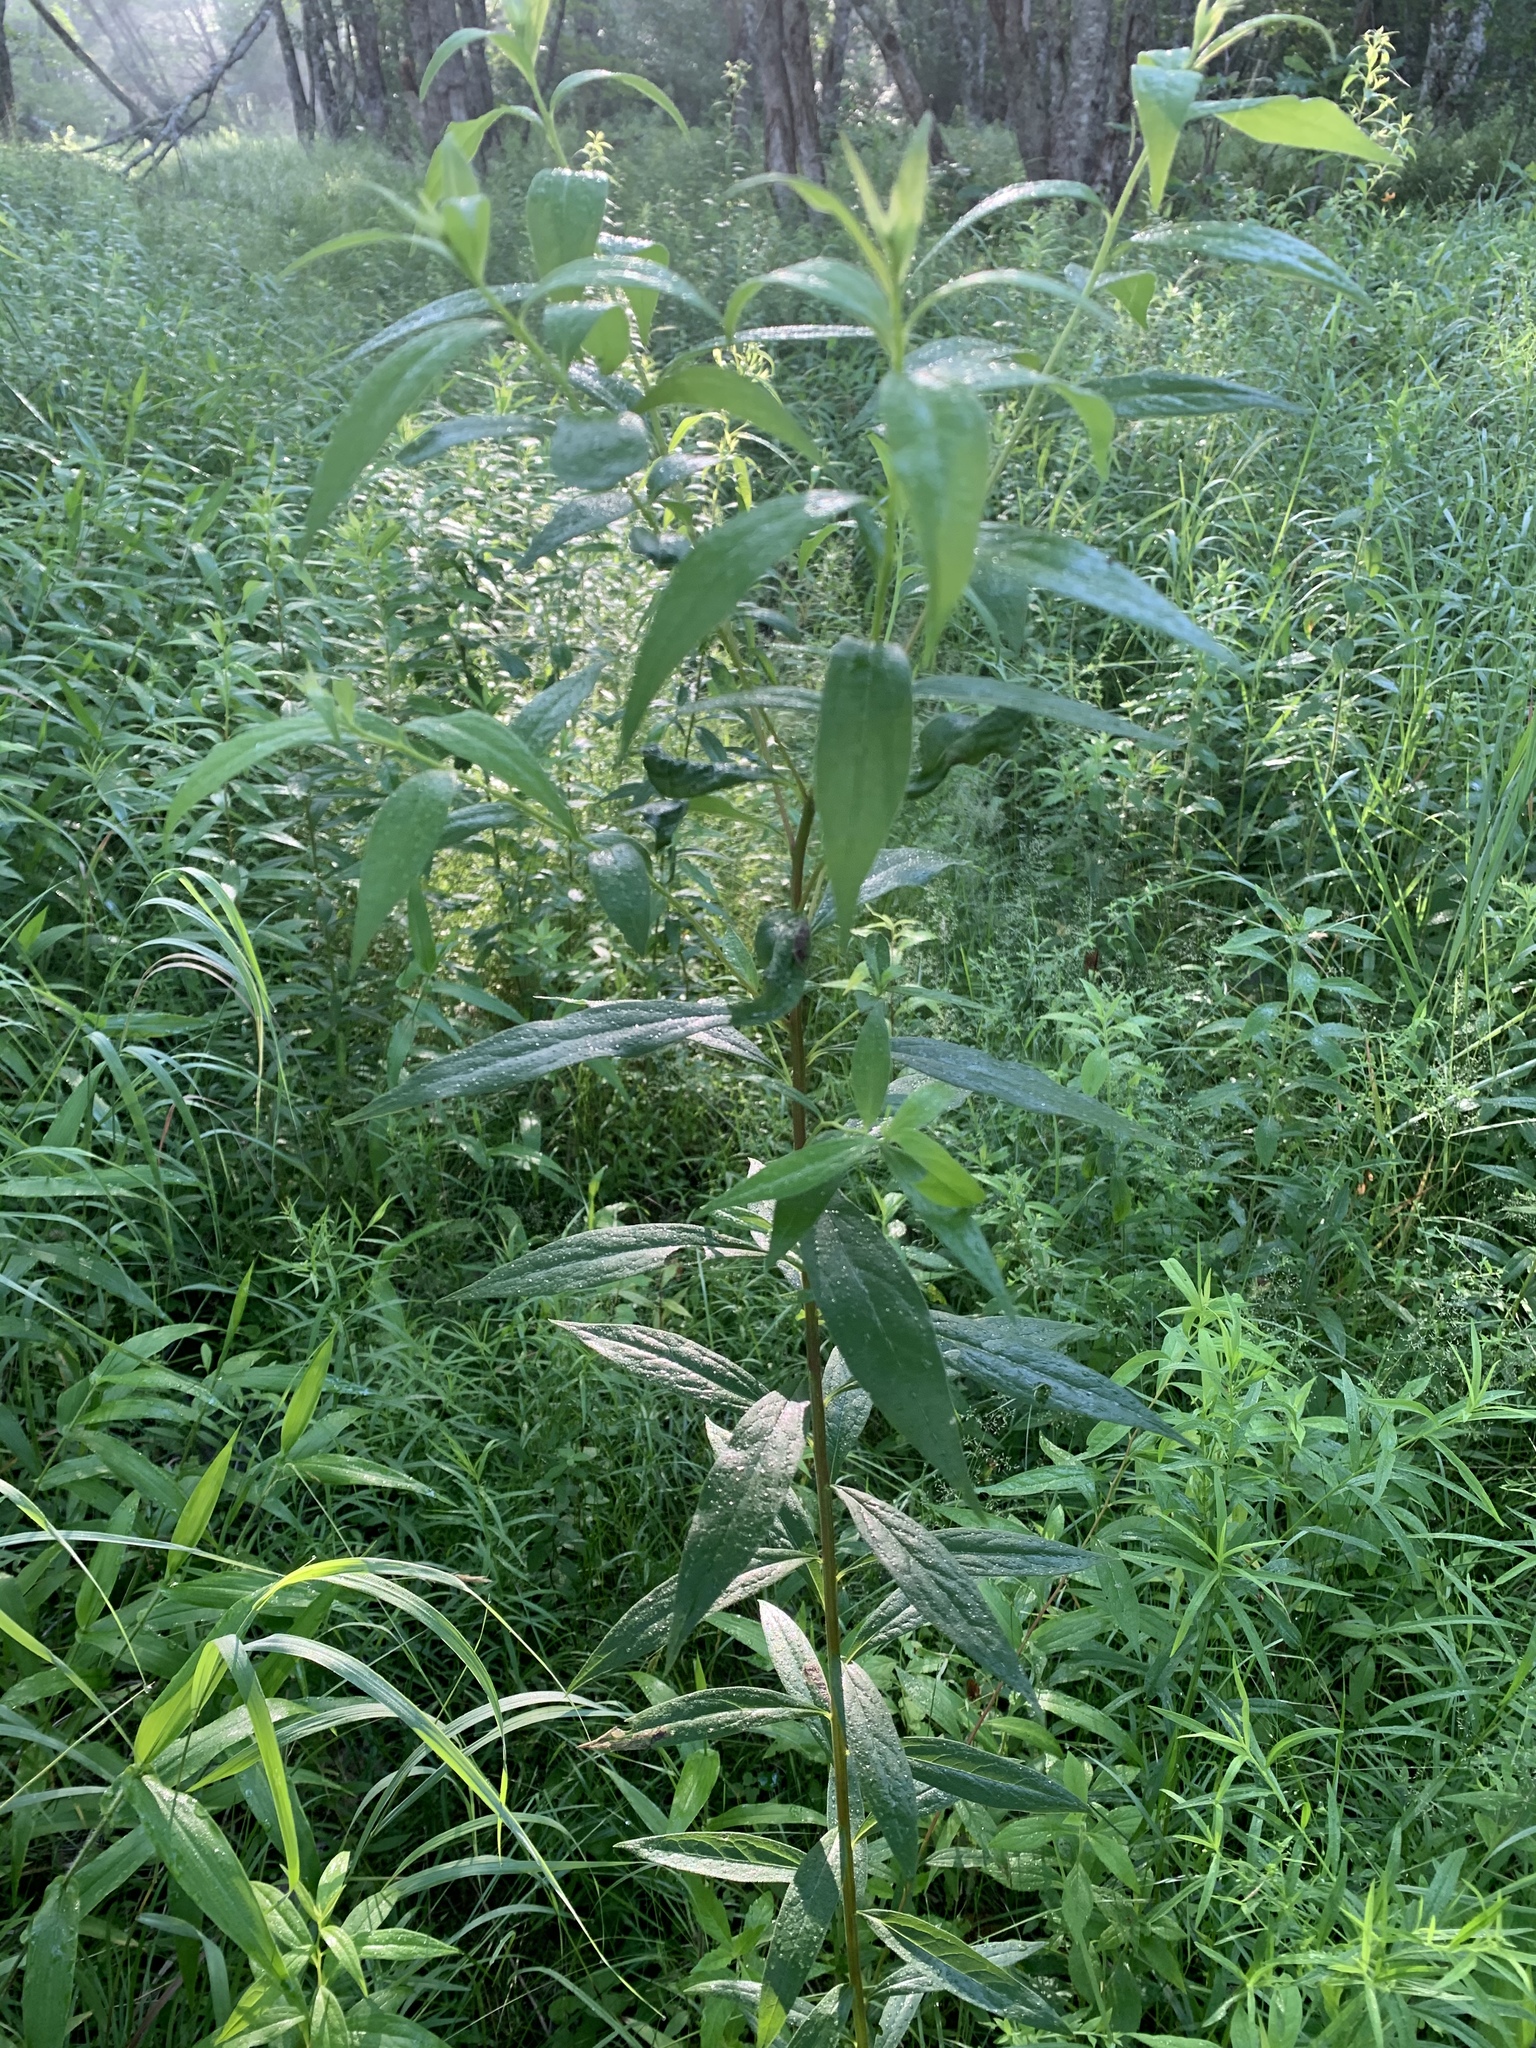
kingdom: Plantae
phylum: Tracheophyta
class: Magnoliopsida
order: Asterales
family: Asteraceae
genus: Doellingeria
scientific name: Doellingeria umbellata
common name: Flat-top white aster
